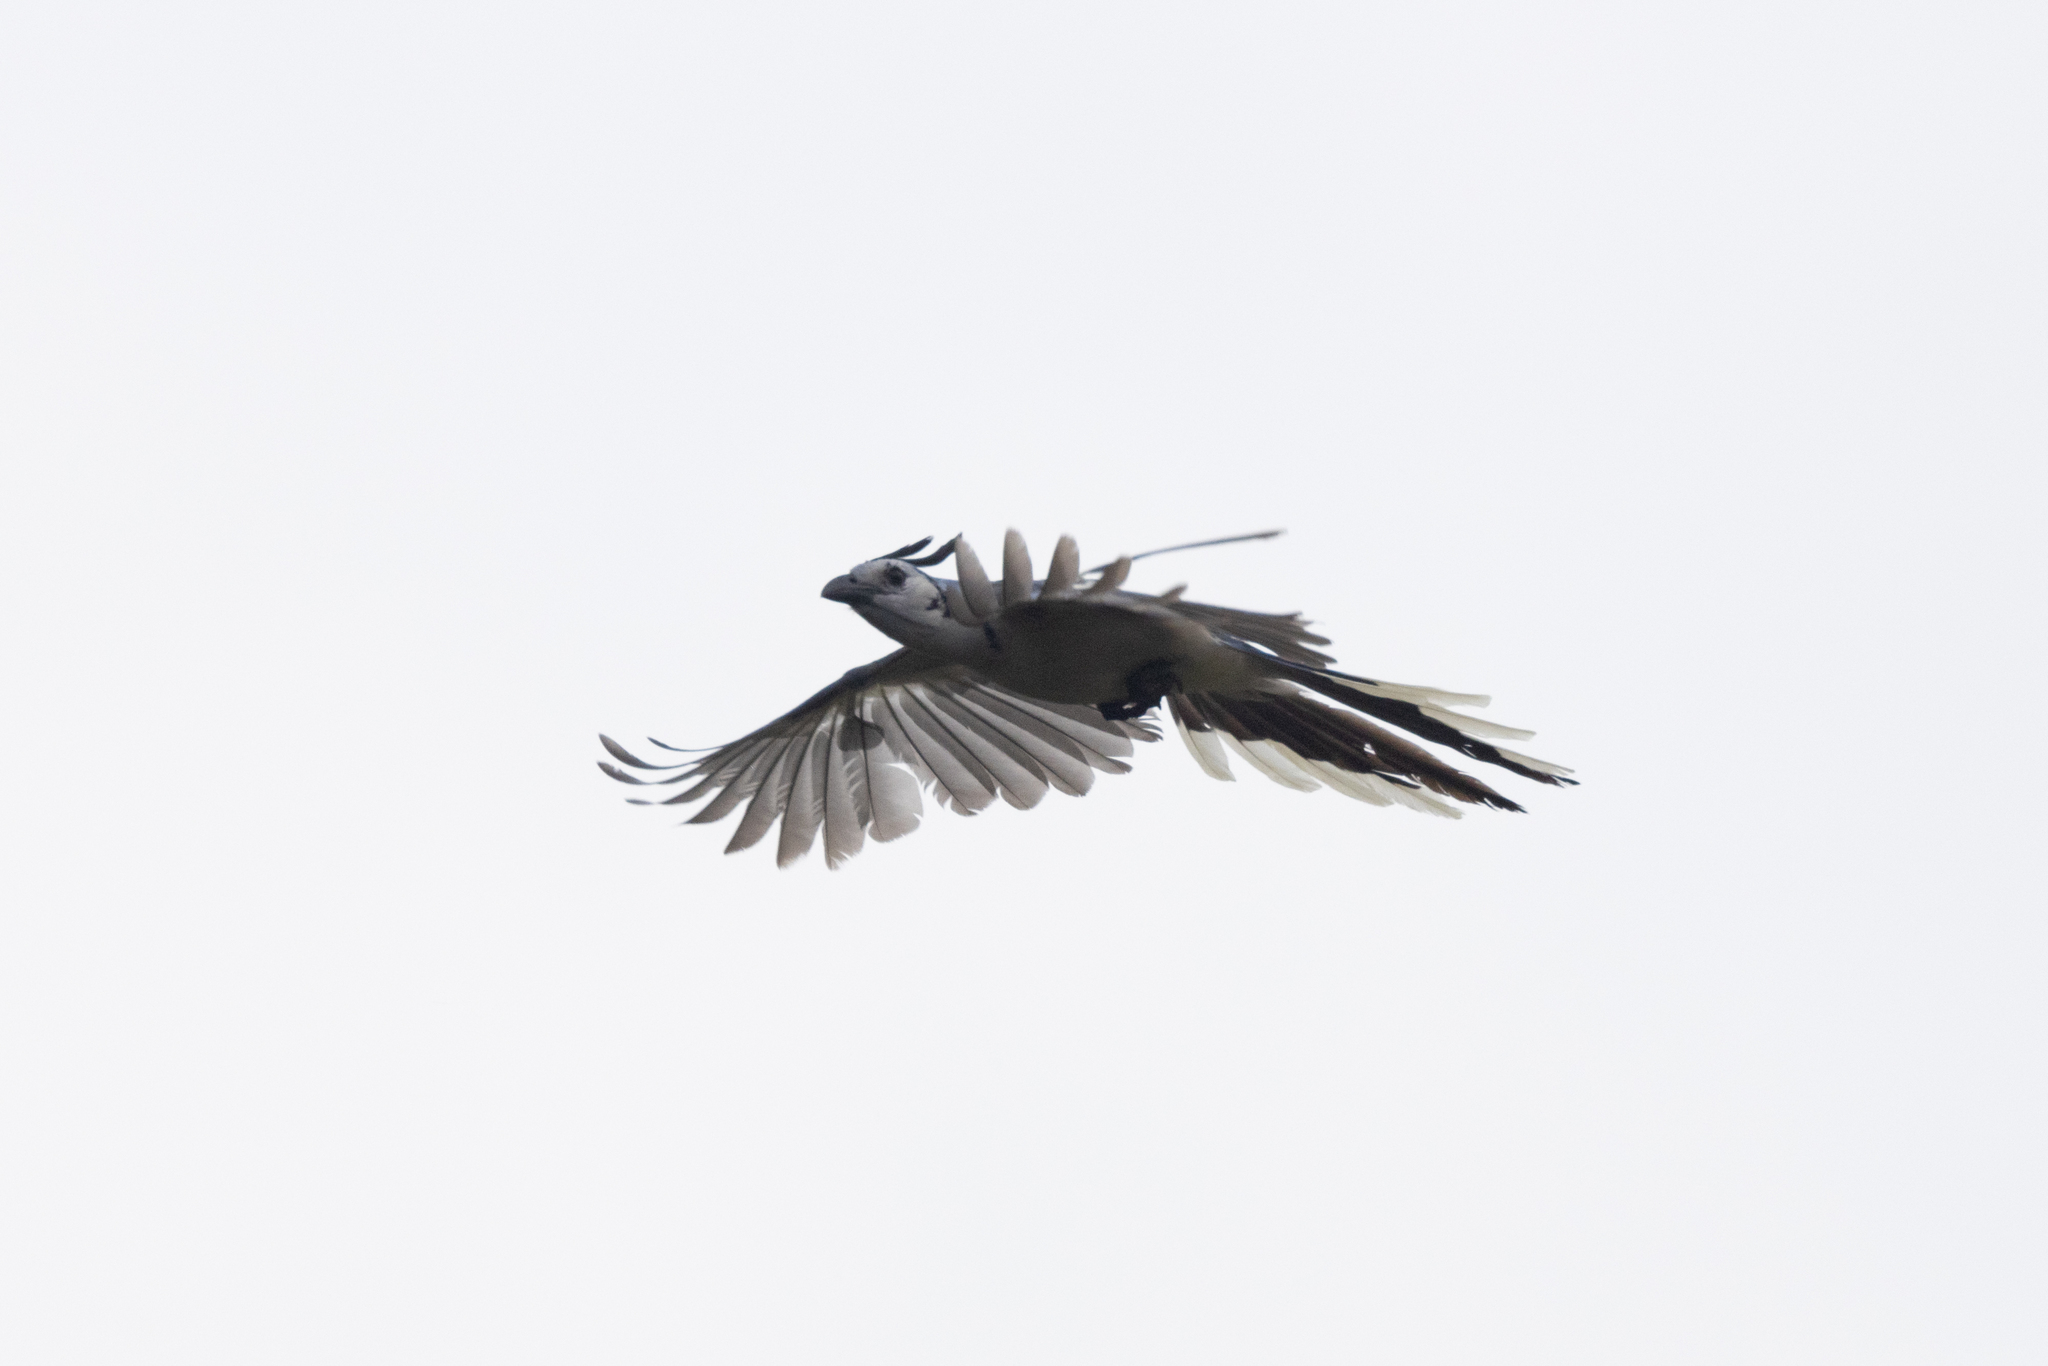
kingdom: Animalia
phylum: Chordata
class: Aves
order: Passeriformes
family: Corvidae
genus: Calocitta
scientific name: Calocitta formosa
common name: White-throated magpie-jay
